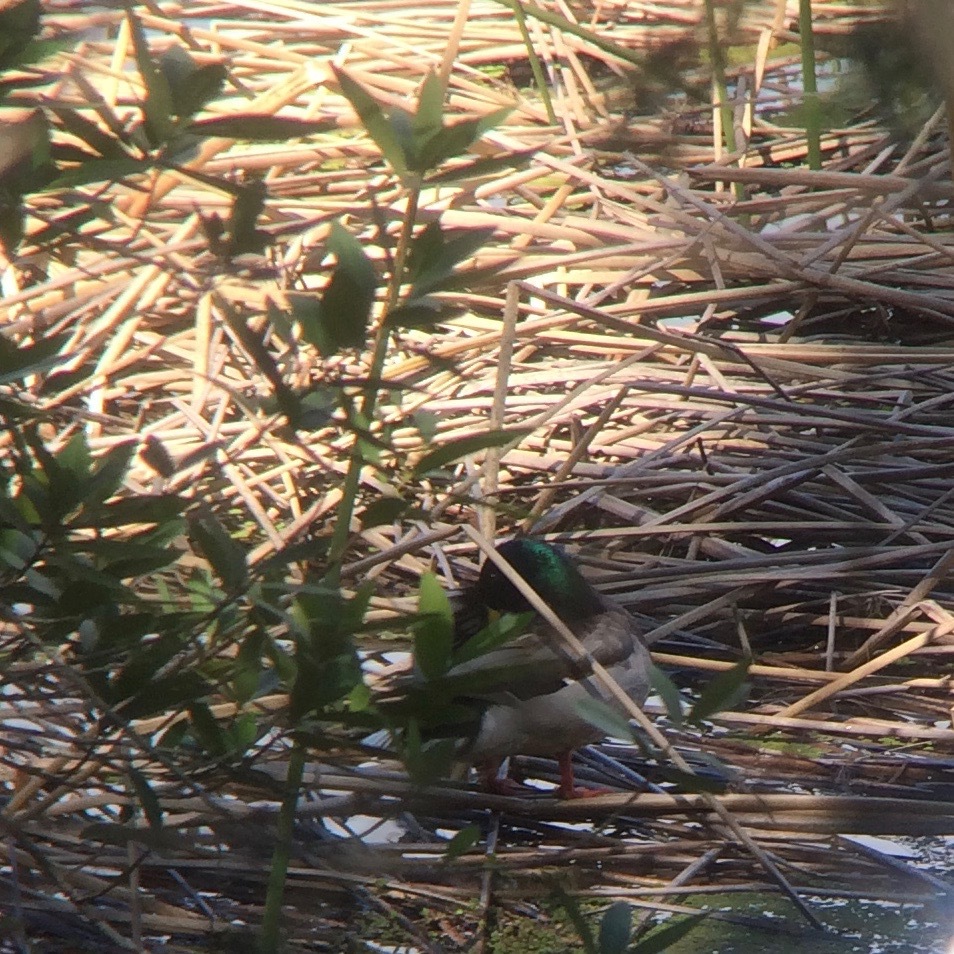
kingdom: Animalia
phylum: Chordata
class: Aves
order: Anseriformes
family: Anatidae
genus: Anas
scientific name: Anas platyrhynchos
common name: Mallard
